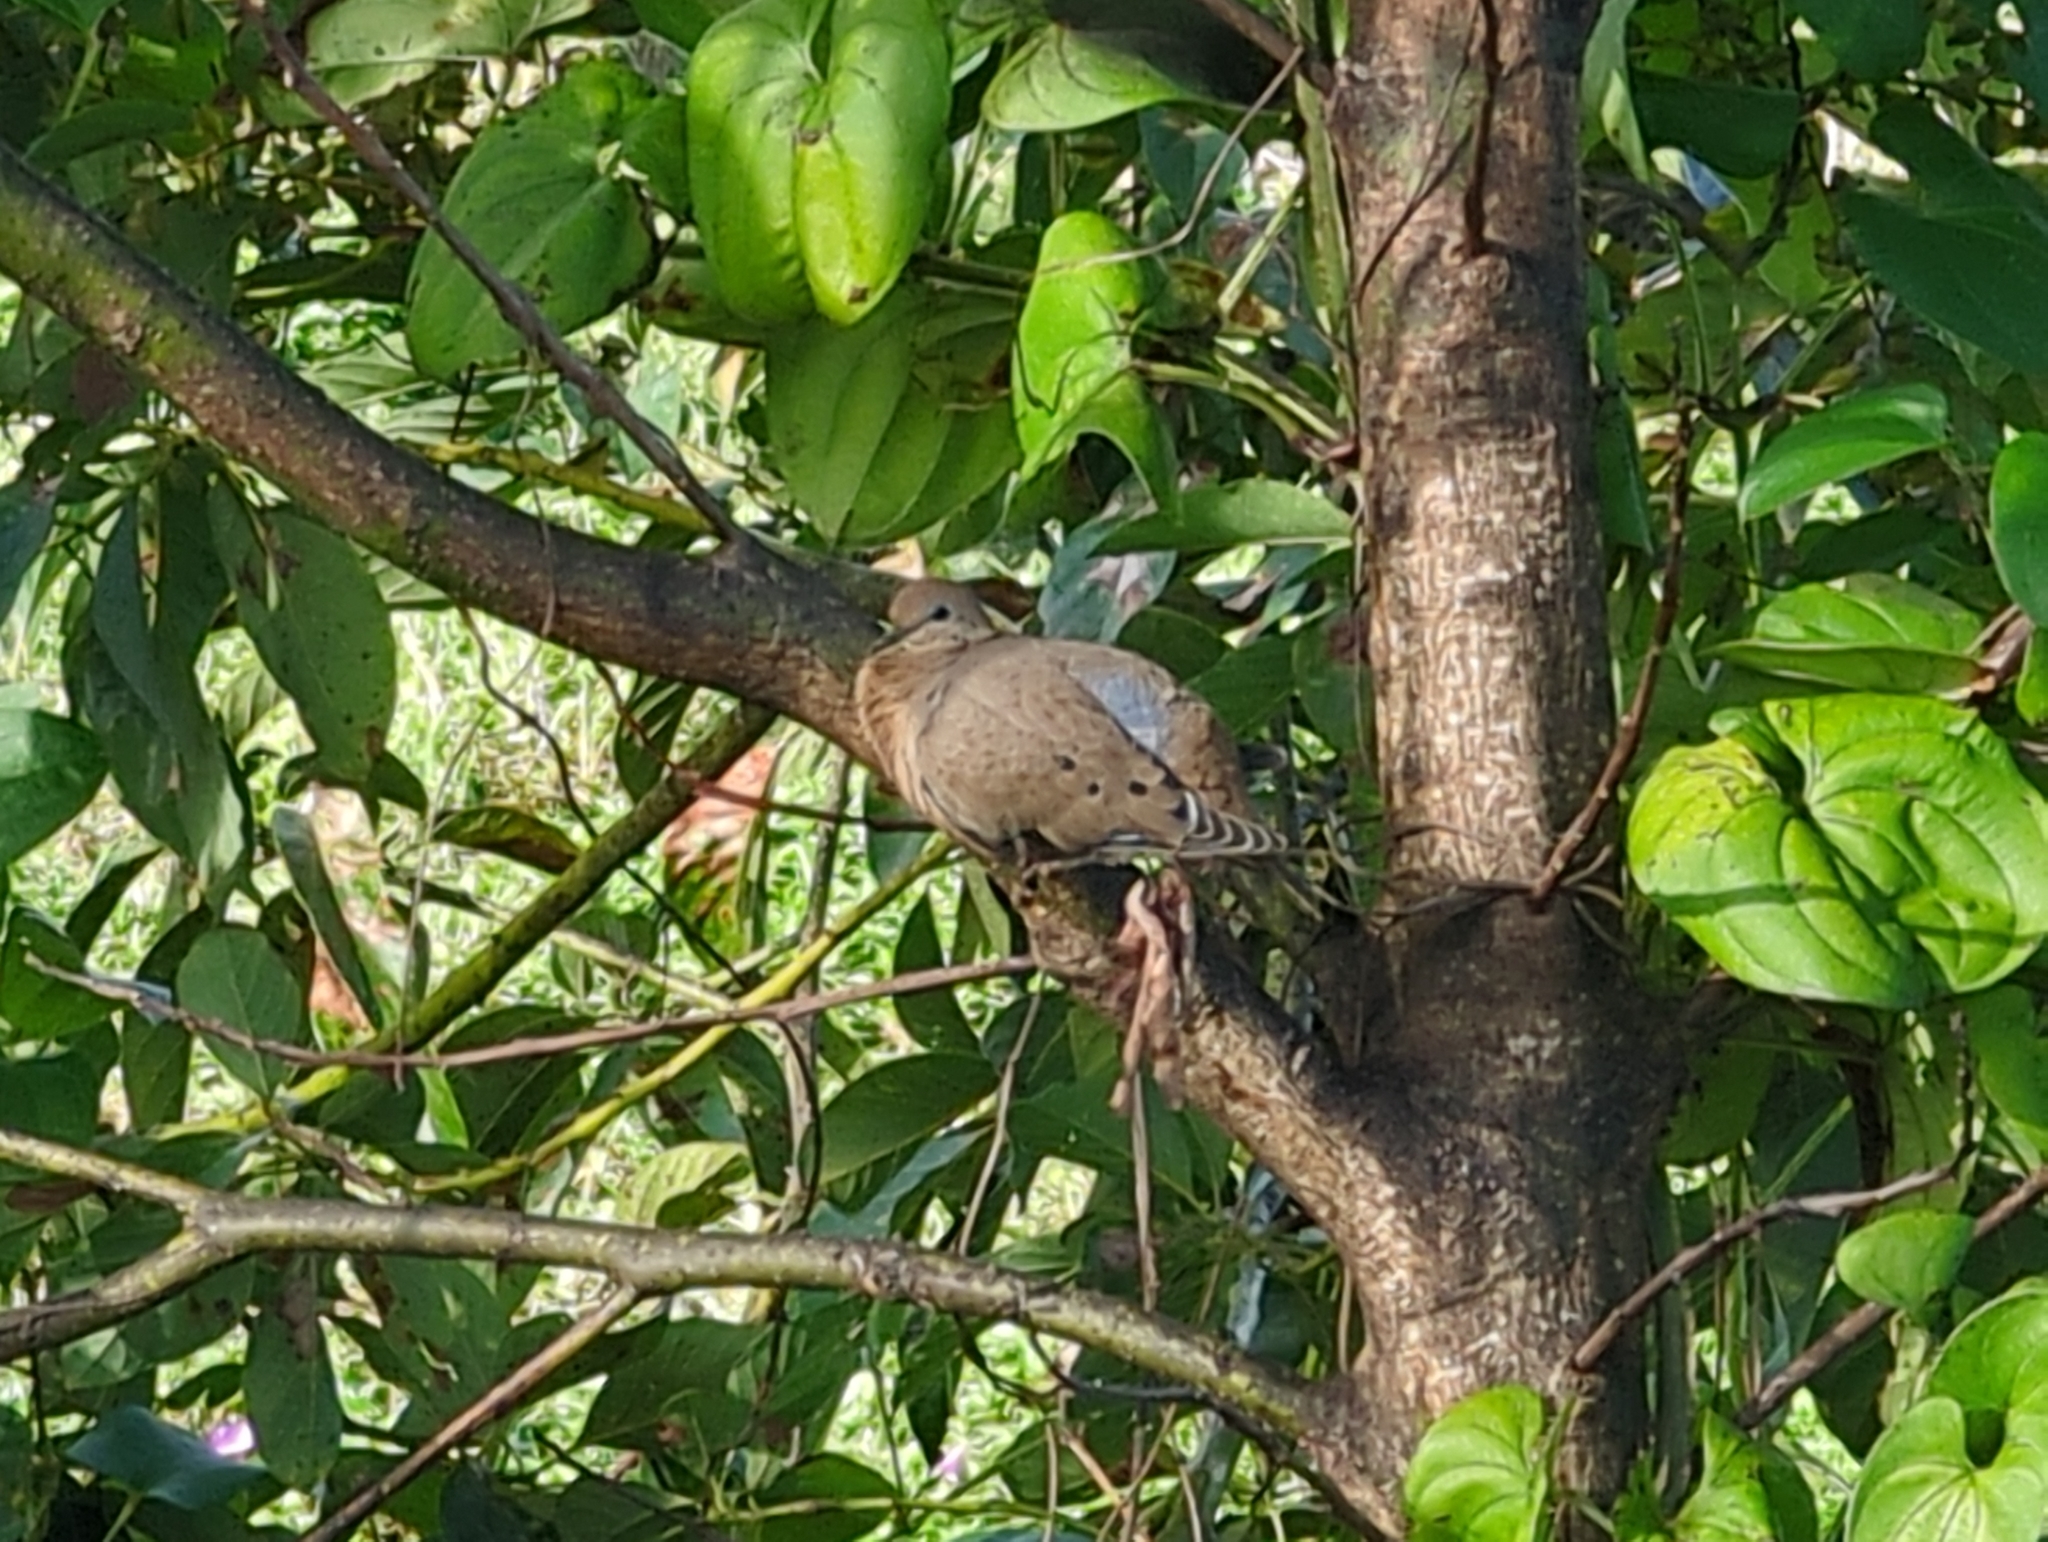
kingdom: Animalia
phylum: Chordata
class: Aves
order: Columbiformes
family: Columbidae
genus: Zenaida
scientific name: Zenaida aurita
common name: Zenaida dove
